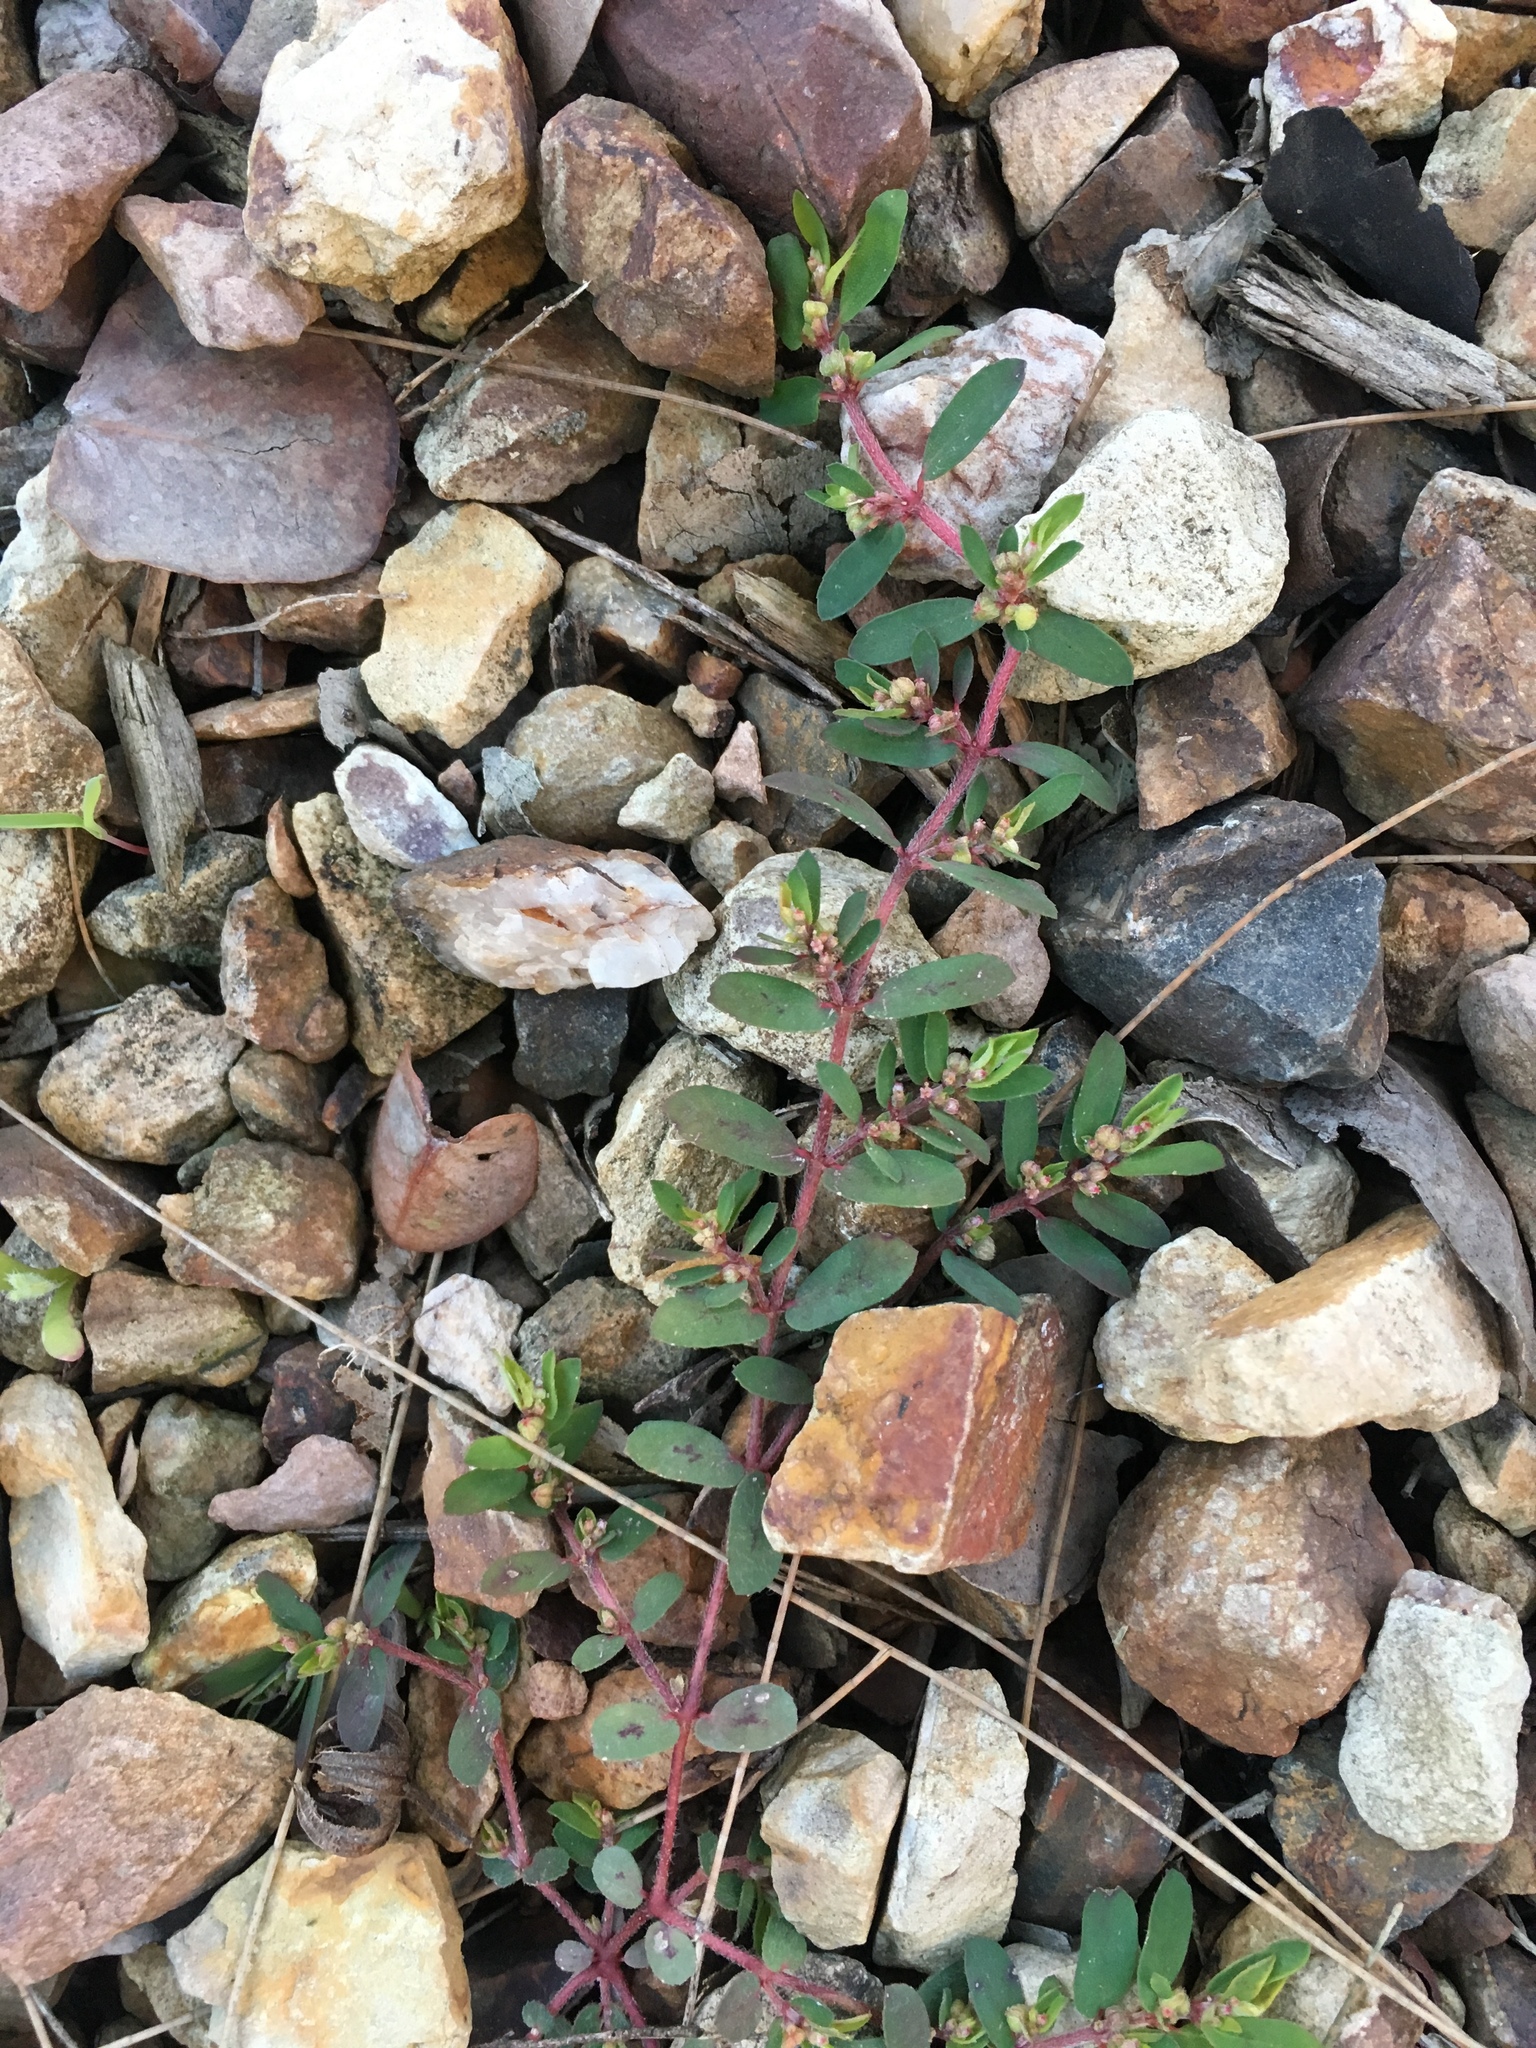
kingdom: Plantae
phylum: Tracheophyta
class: Magnoliopsida
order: Malpighiales
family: Euphorbiaceae
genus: Euphorbia
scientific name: Euphorbia maculata
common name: Spotted spurge
